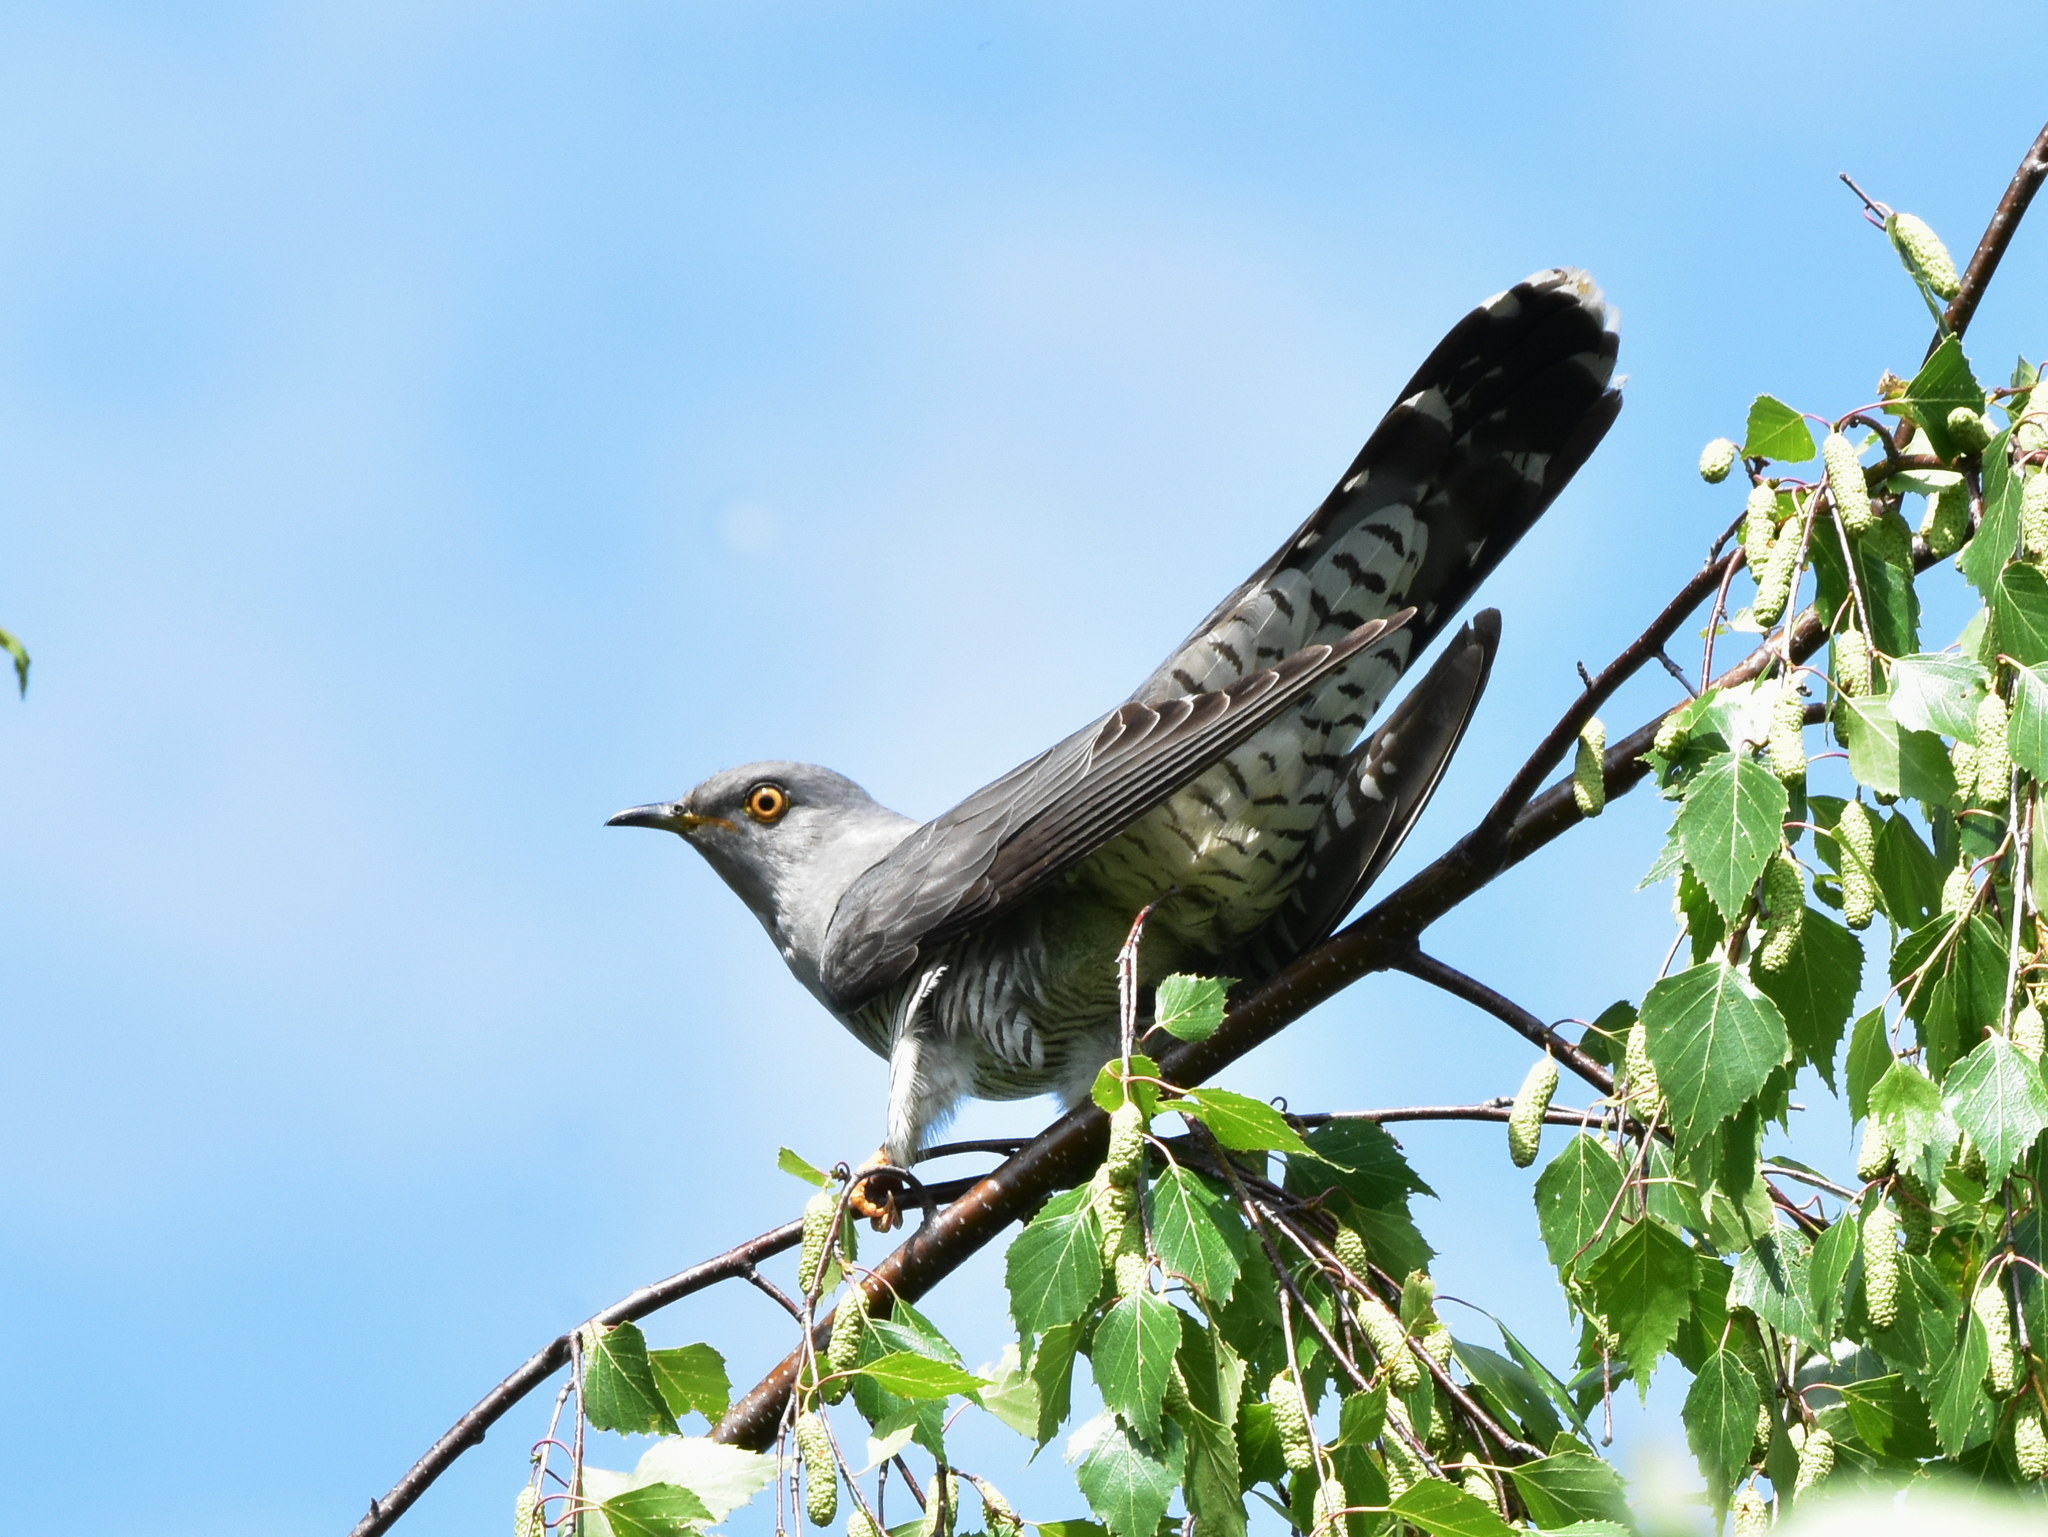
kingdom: Animalia
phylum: Chordata
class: Aves
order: Cuculiformes
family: Cuculidae
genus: Cuculus
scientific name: Cuculus canorus
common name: Common cuckoo
